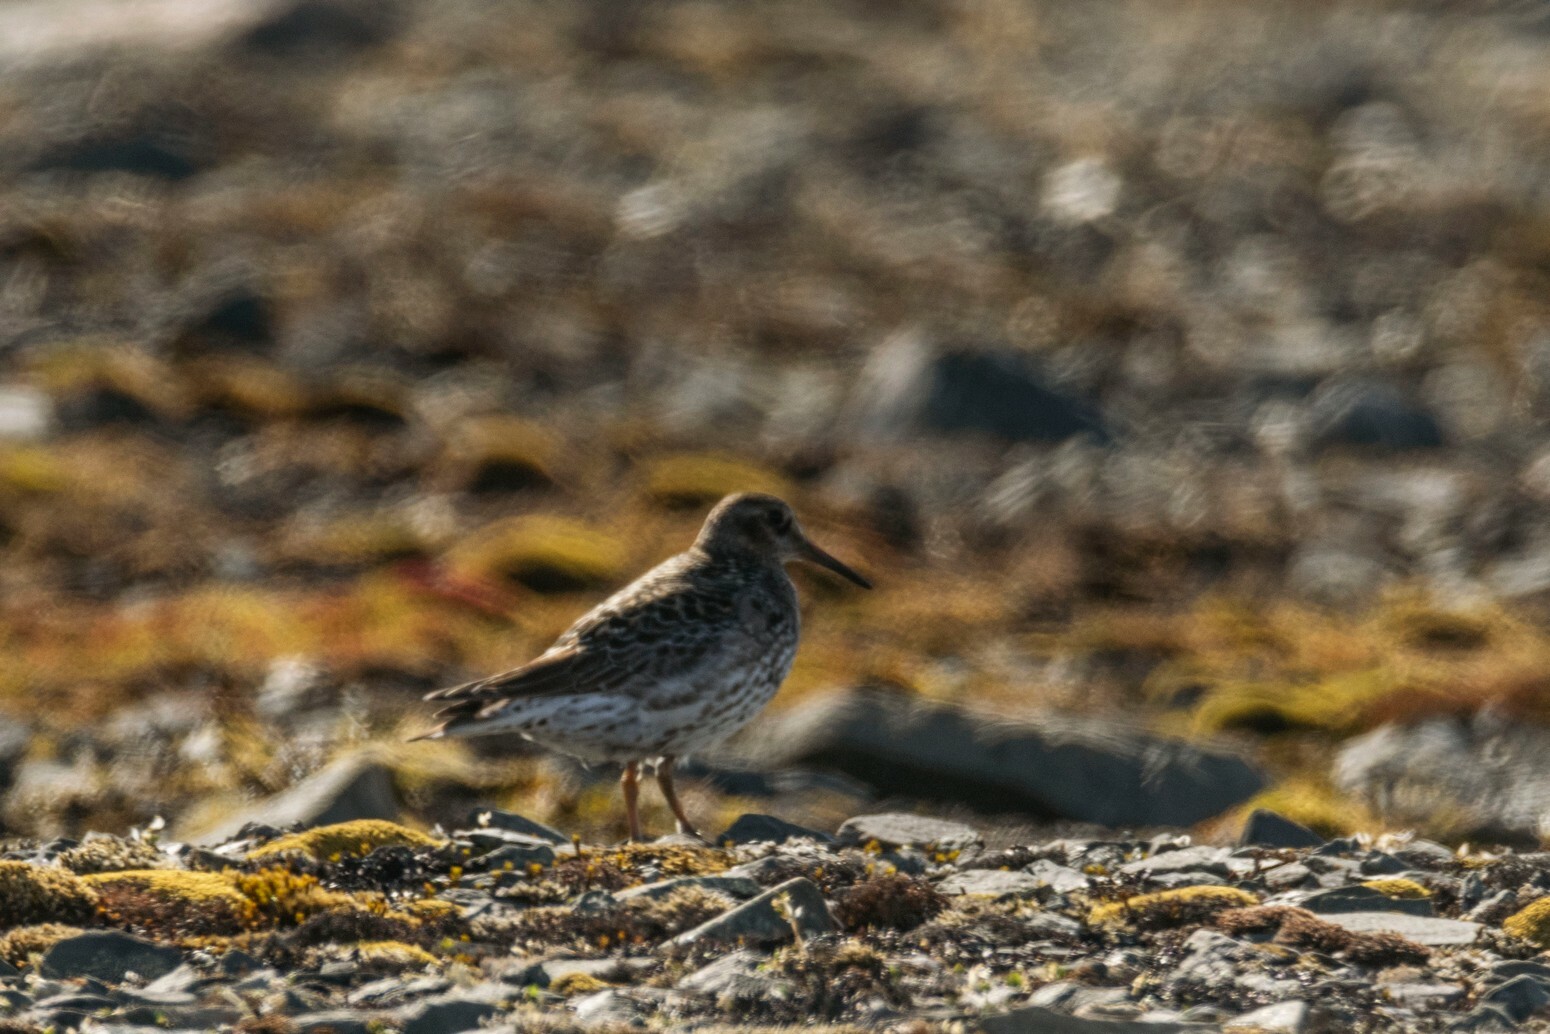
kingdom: Animalia
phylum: Chordata
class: Aves
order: Charadriiformes
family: Scolopacidae
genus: Calidris
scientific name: Calidris maritima
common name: Purple sandpiper
